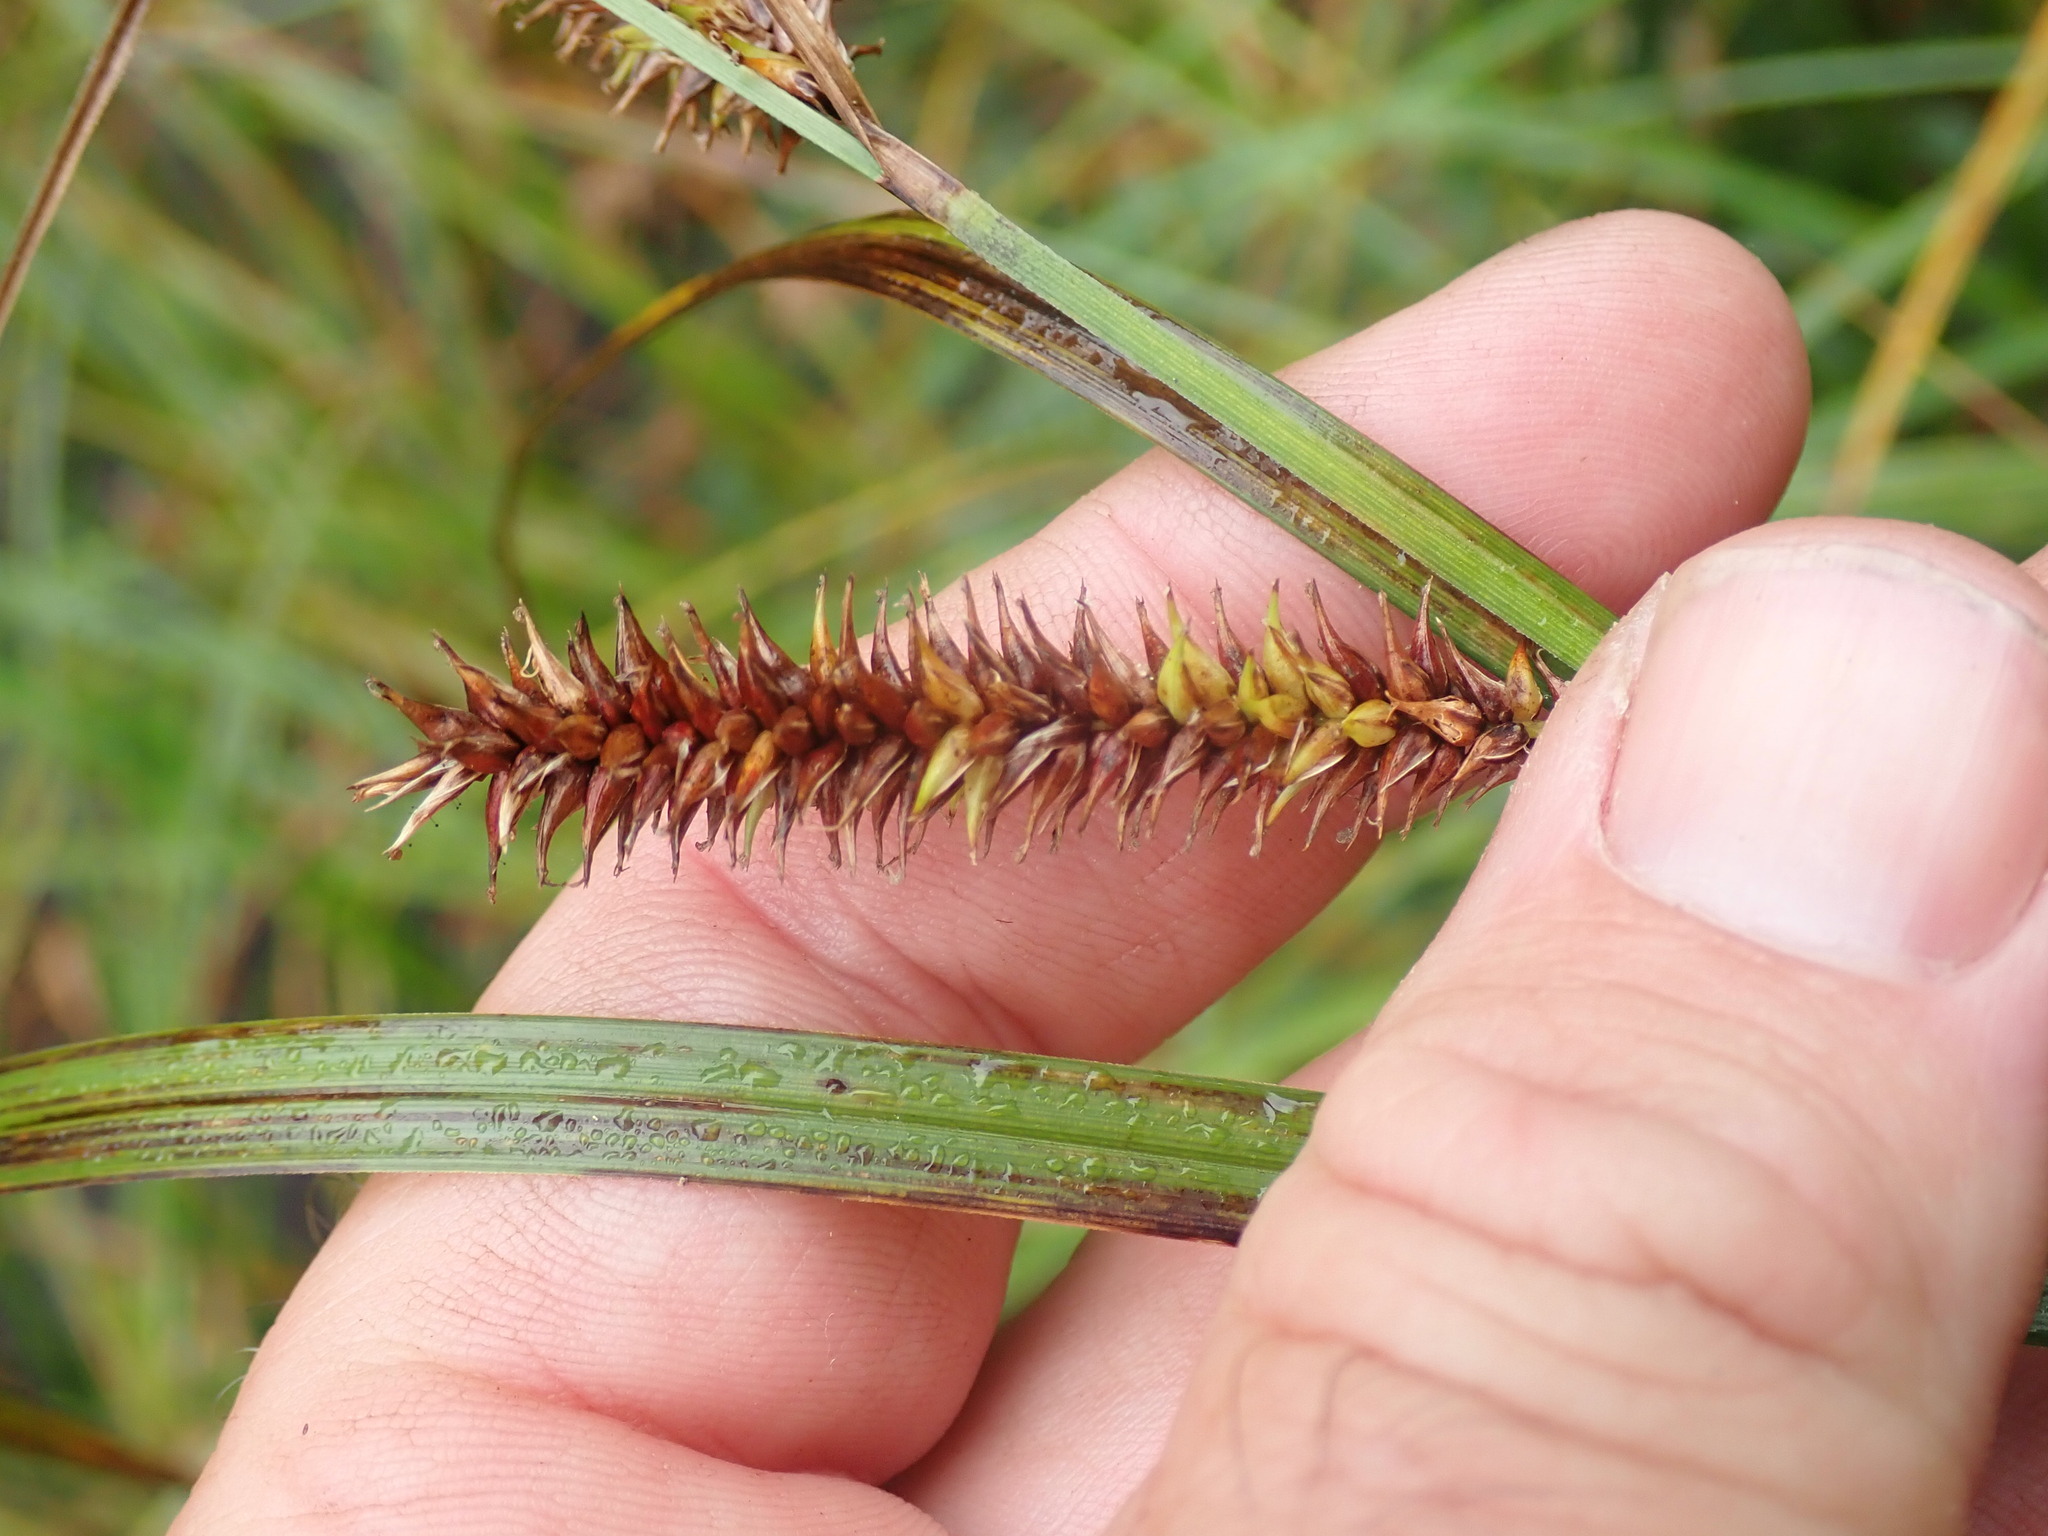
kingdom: Plantae
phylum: Tracheophyta
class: Liliopsida
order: Poales
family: Cyperaceae
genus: Carex
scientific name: Carex utriculata
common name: Beaked sedge
